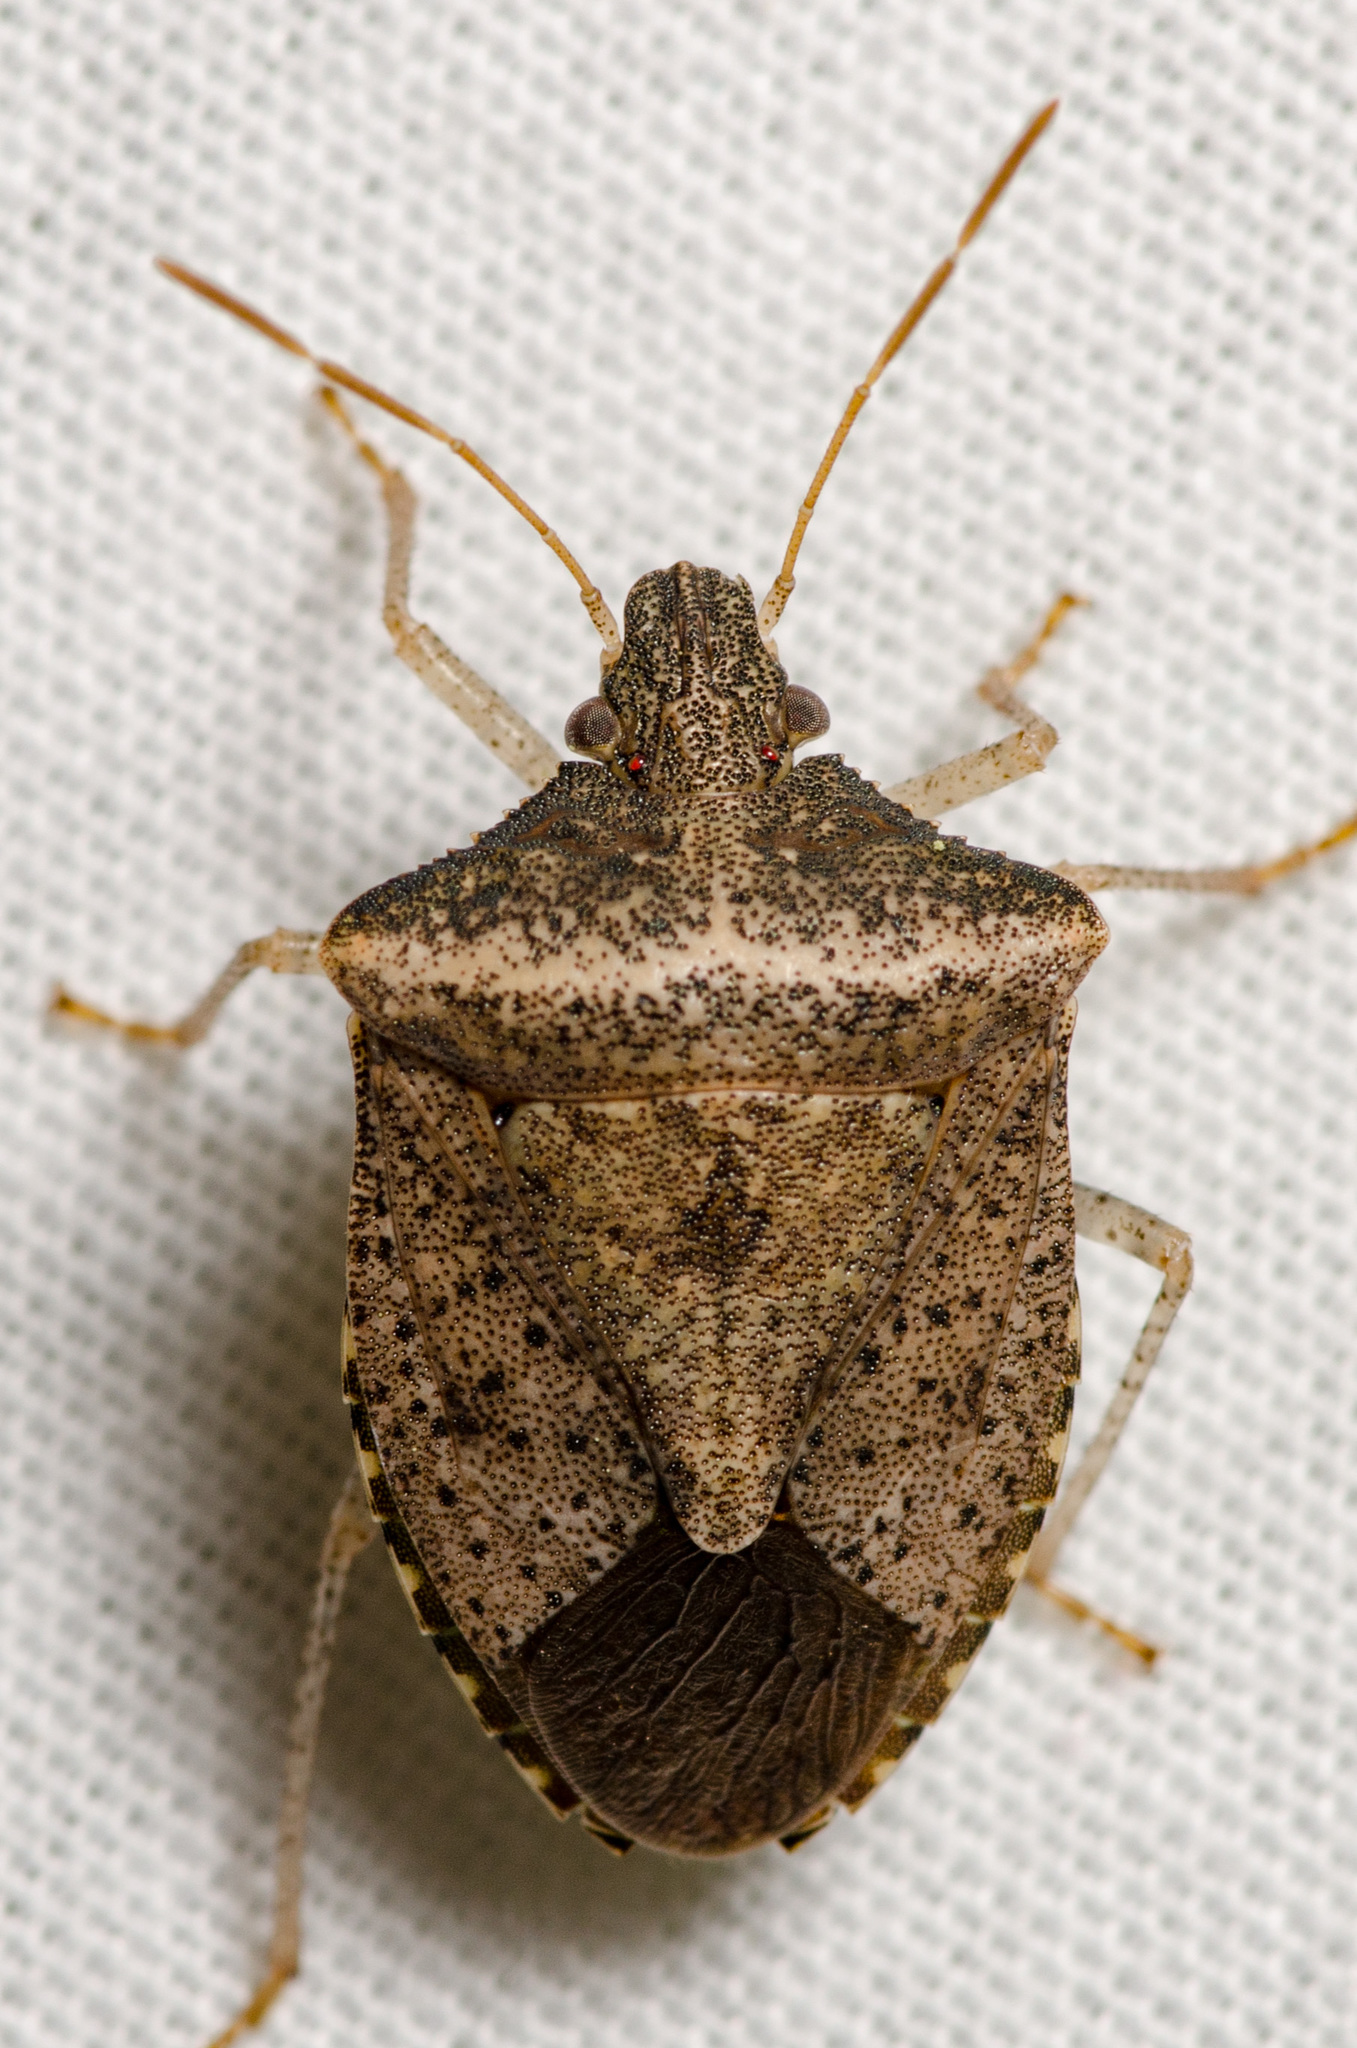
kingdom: Animalia
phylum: Arthropoda
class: Insecta
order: Hemiptera
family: Pentatomidae
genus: Euschistus
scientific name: Euschistus obscurus
